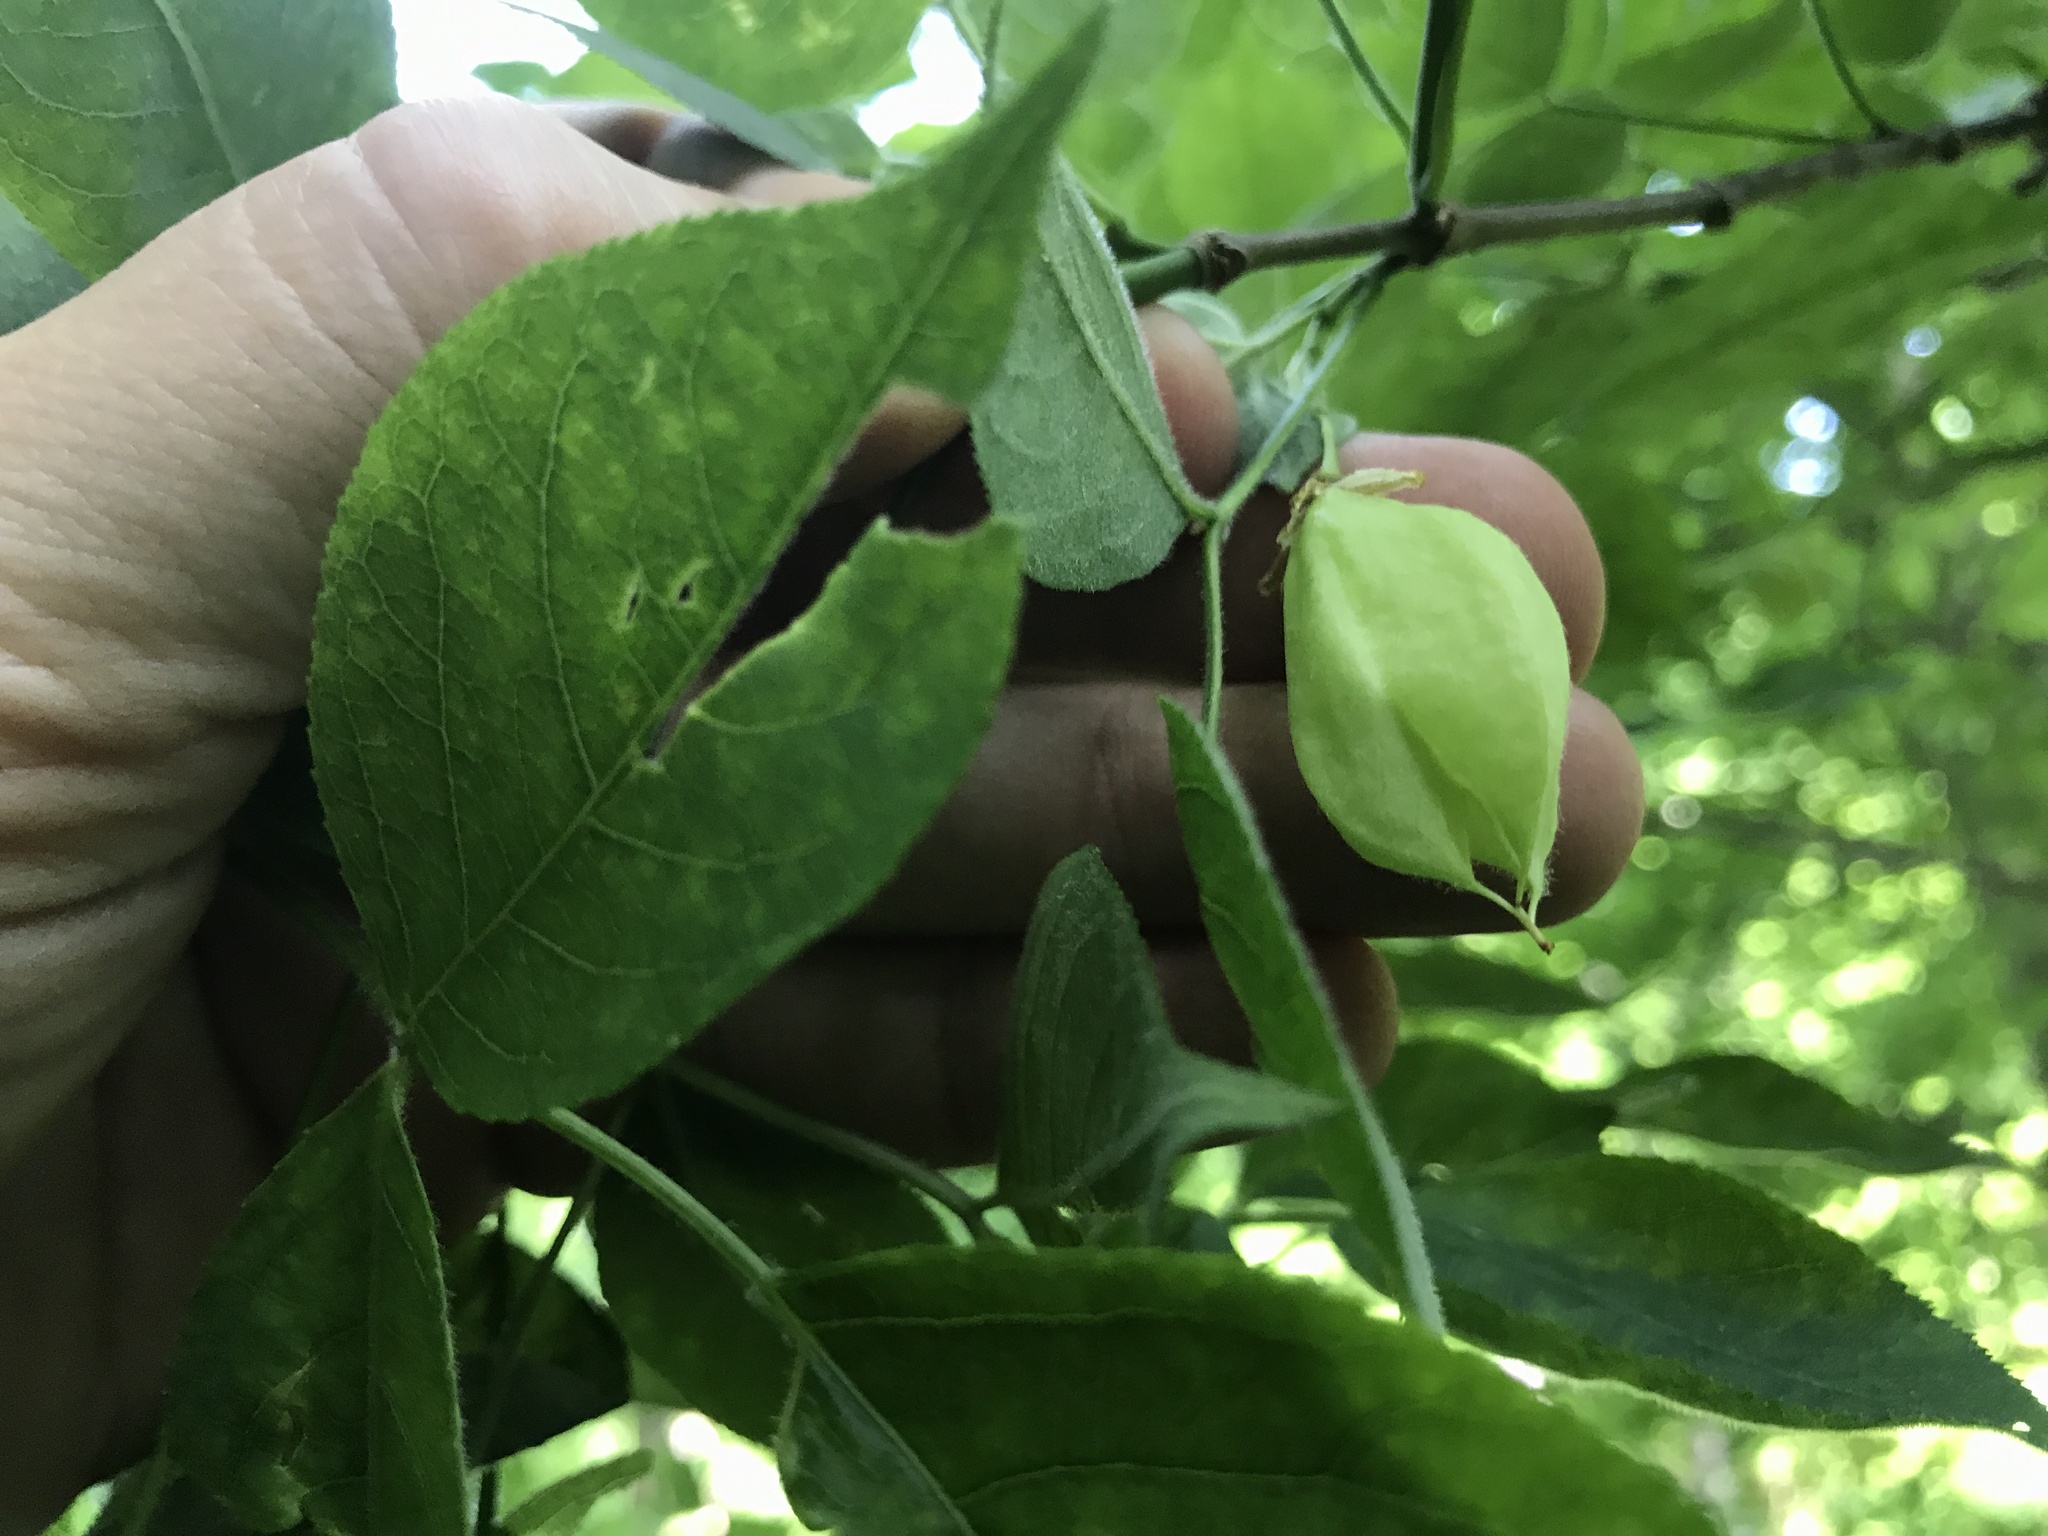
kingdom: Plantae
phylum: Tracheophyta
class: Magnoliopsida
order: Crossosomatales
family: Staphyleaceae
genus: Staphylea
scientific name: Staphylea trifolia
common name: American bladdernut
